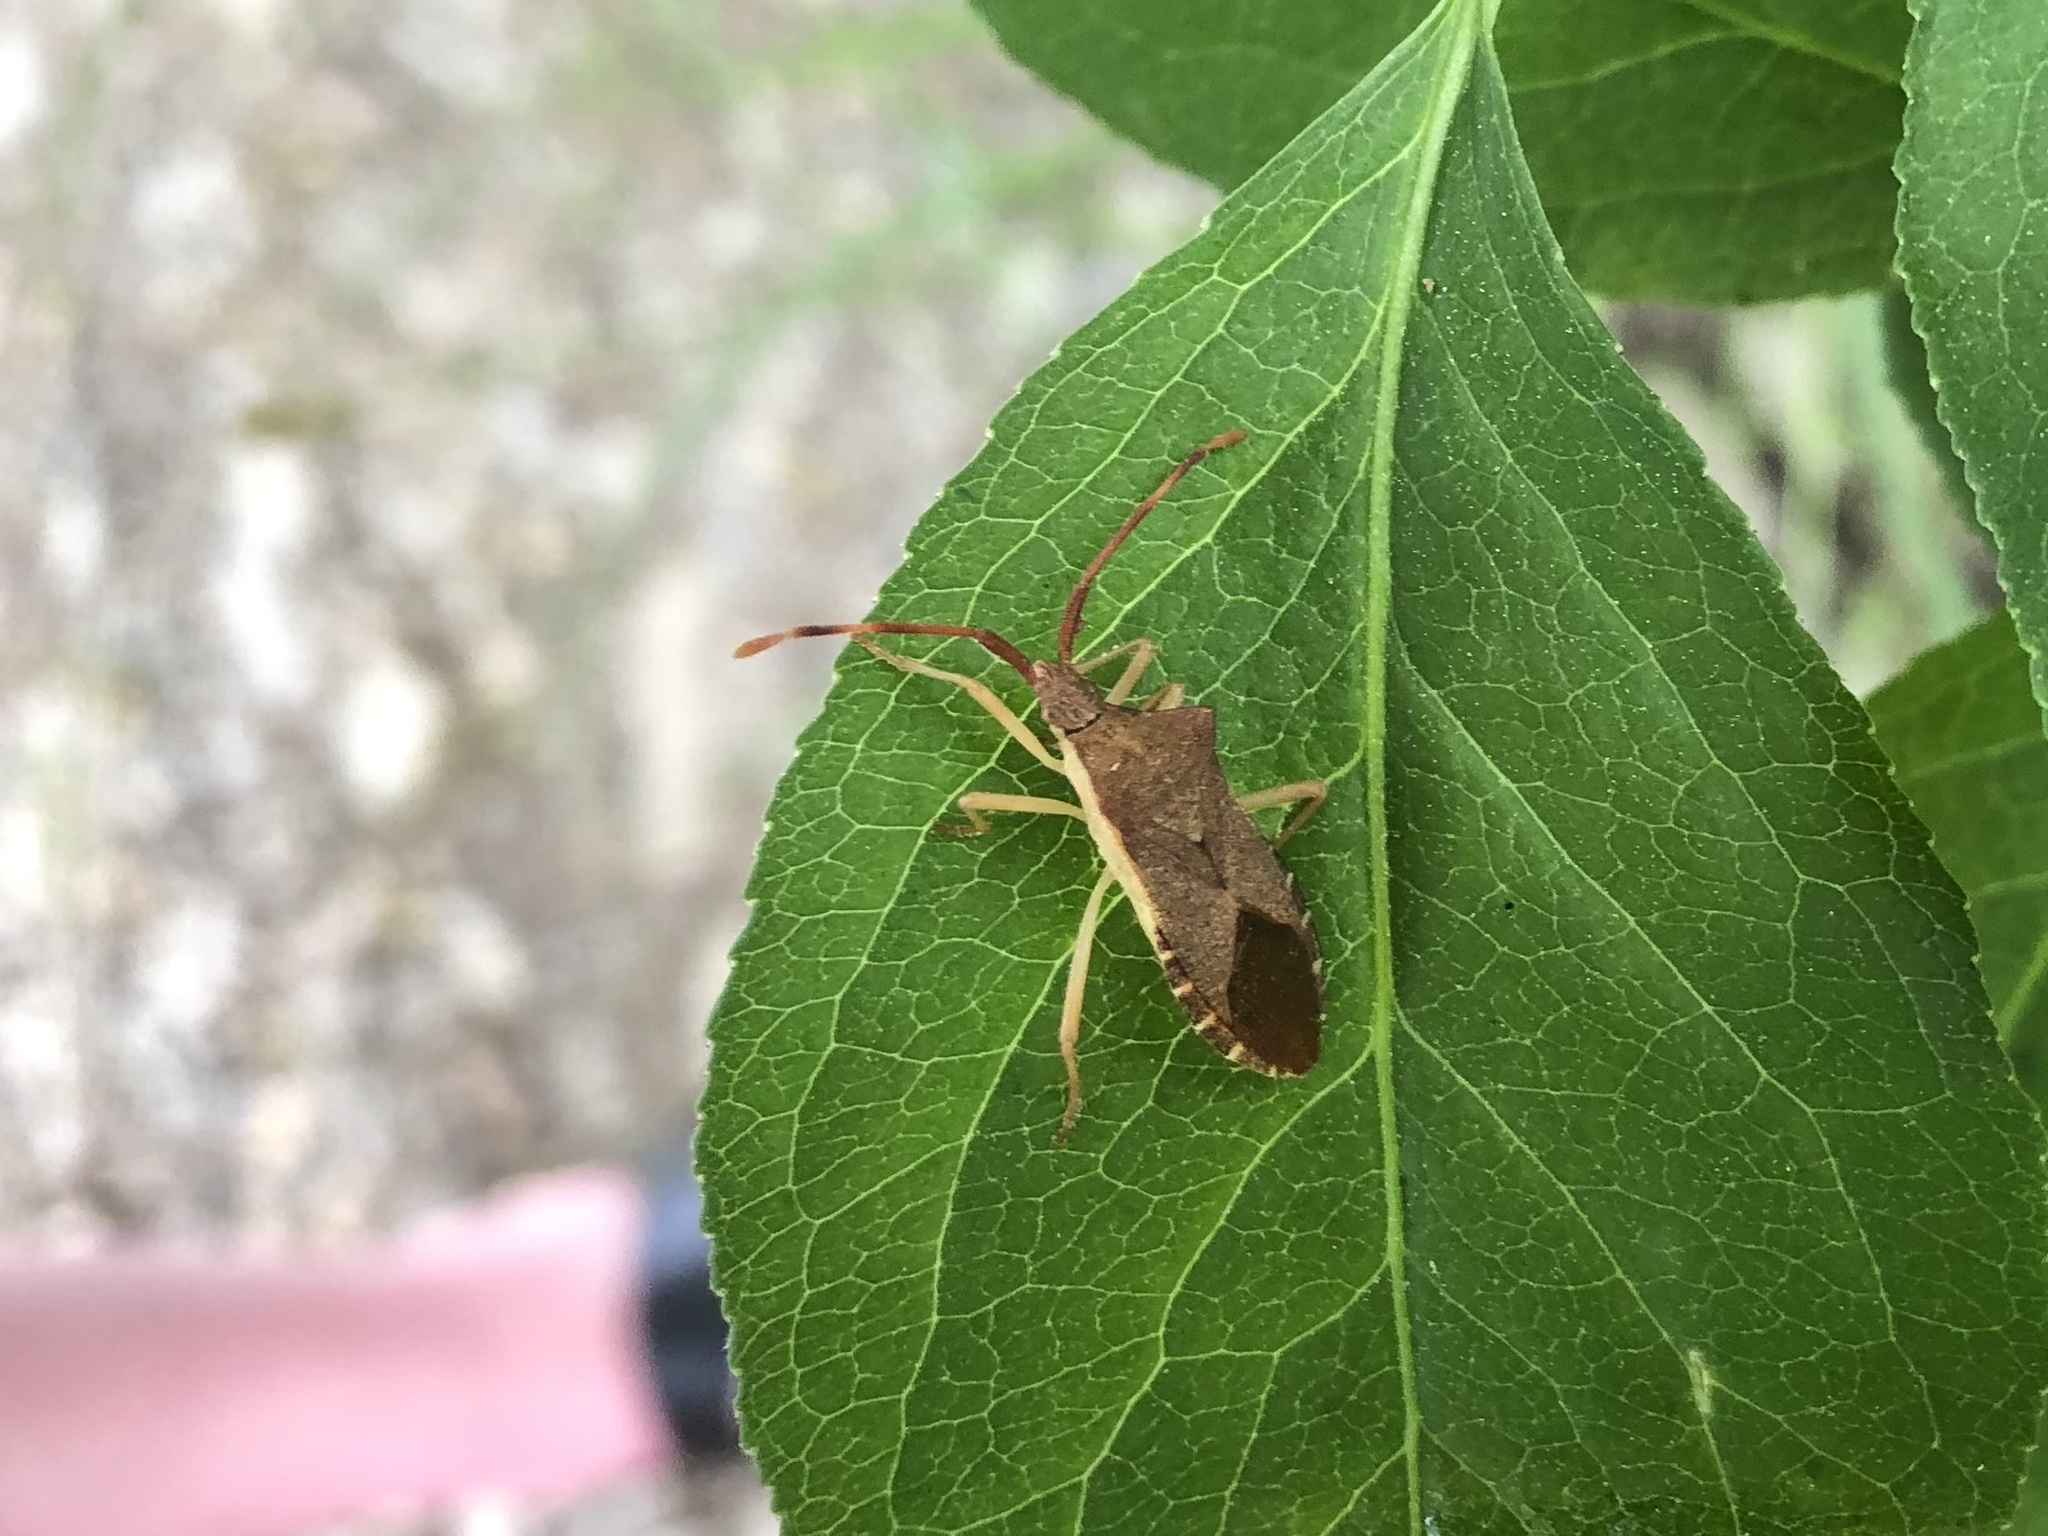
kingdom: Animalia
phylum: Arthropoda
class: Insecta
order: Hemiptera
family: Coreidae
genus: Gonocerus
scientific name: Gonocerus acuteangulatus
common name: Box bug
